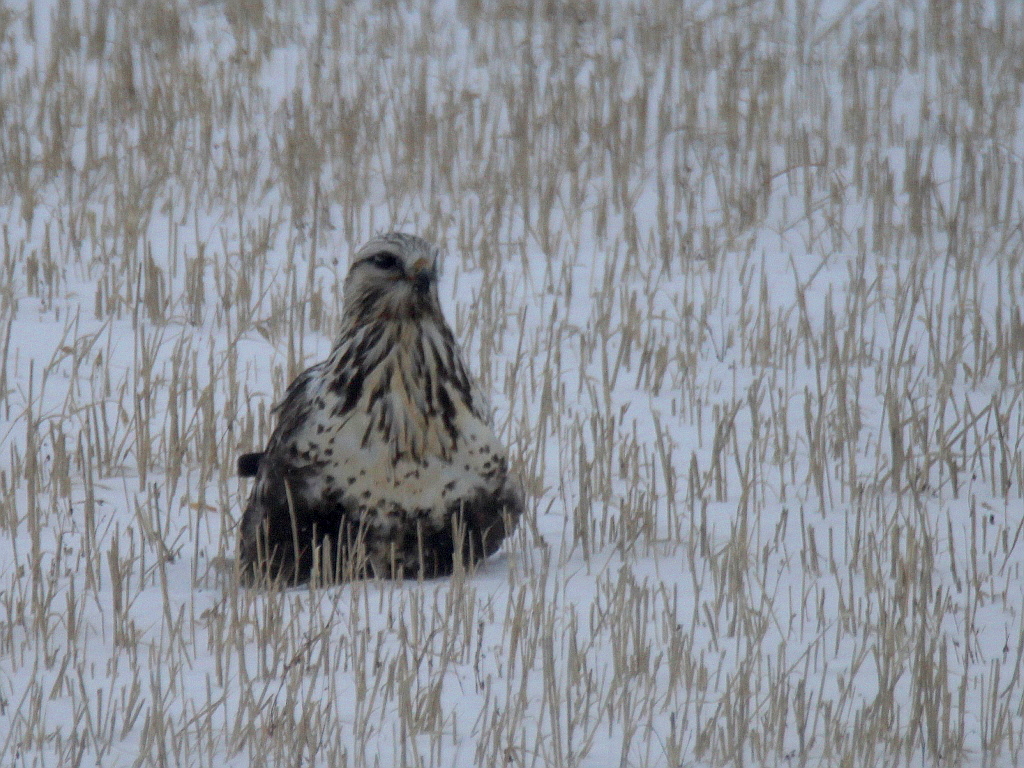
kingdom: Animalia
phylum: Chordata
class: Aves
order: Accipitriformes
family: Accipitridae
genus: Buteo
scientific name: Buteo lagopus
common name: Rough-legged buzzard
